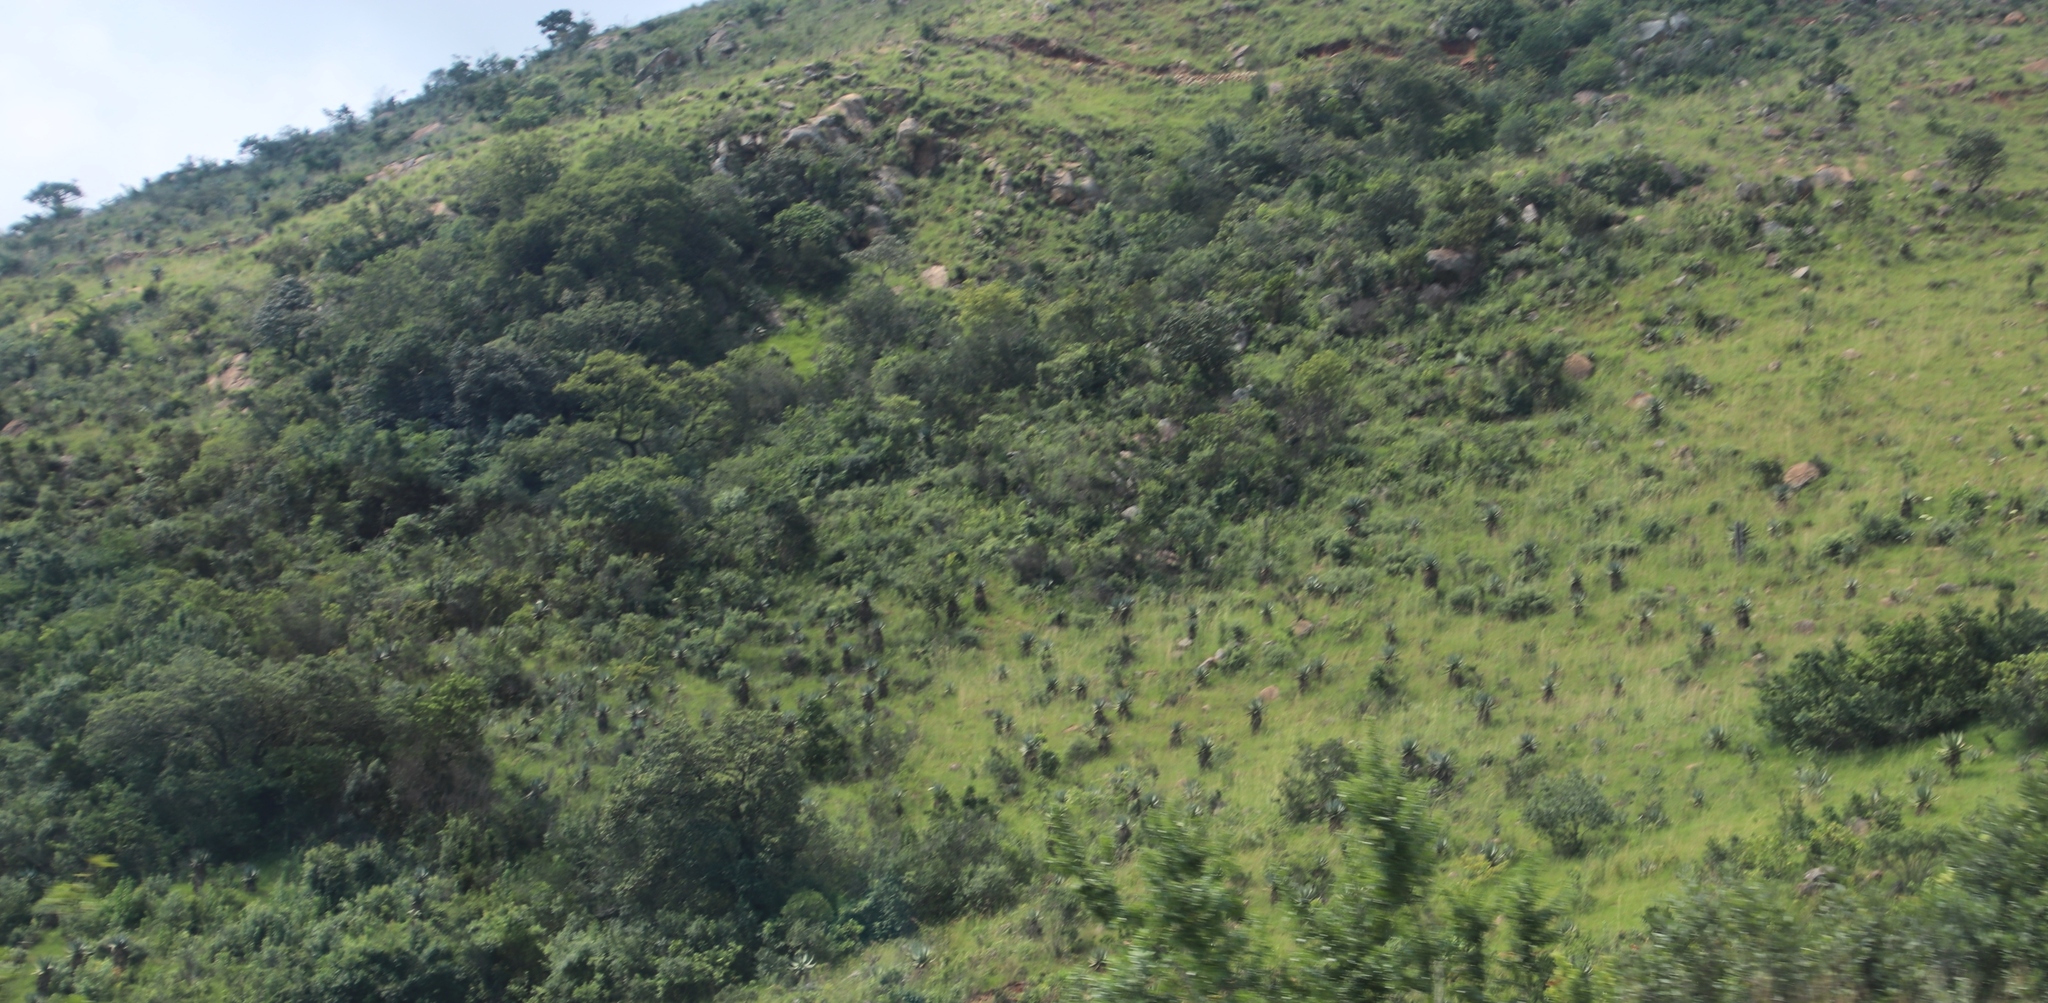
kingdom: Plantae
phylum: Tracheophyta
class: Liliopsida
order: Asparagales
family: Asphodelaceae
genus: Aloe
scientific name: Aloe marlothii
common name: Flat-flowered aloe
